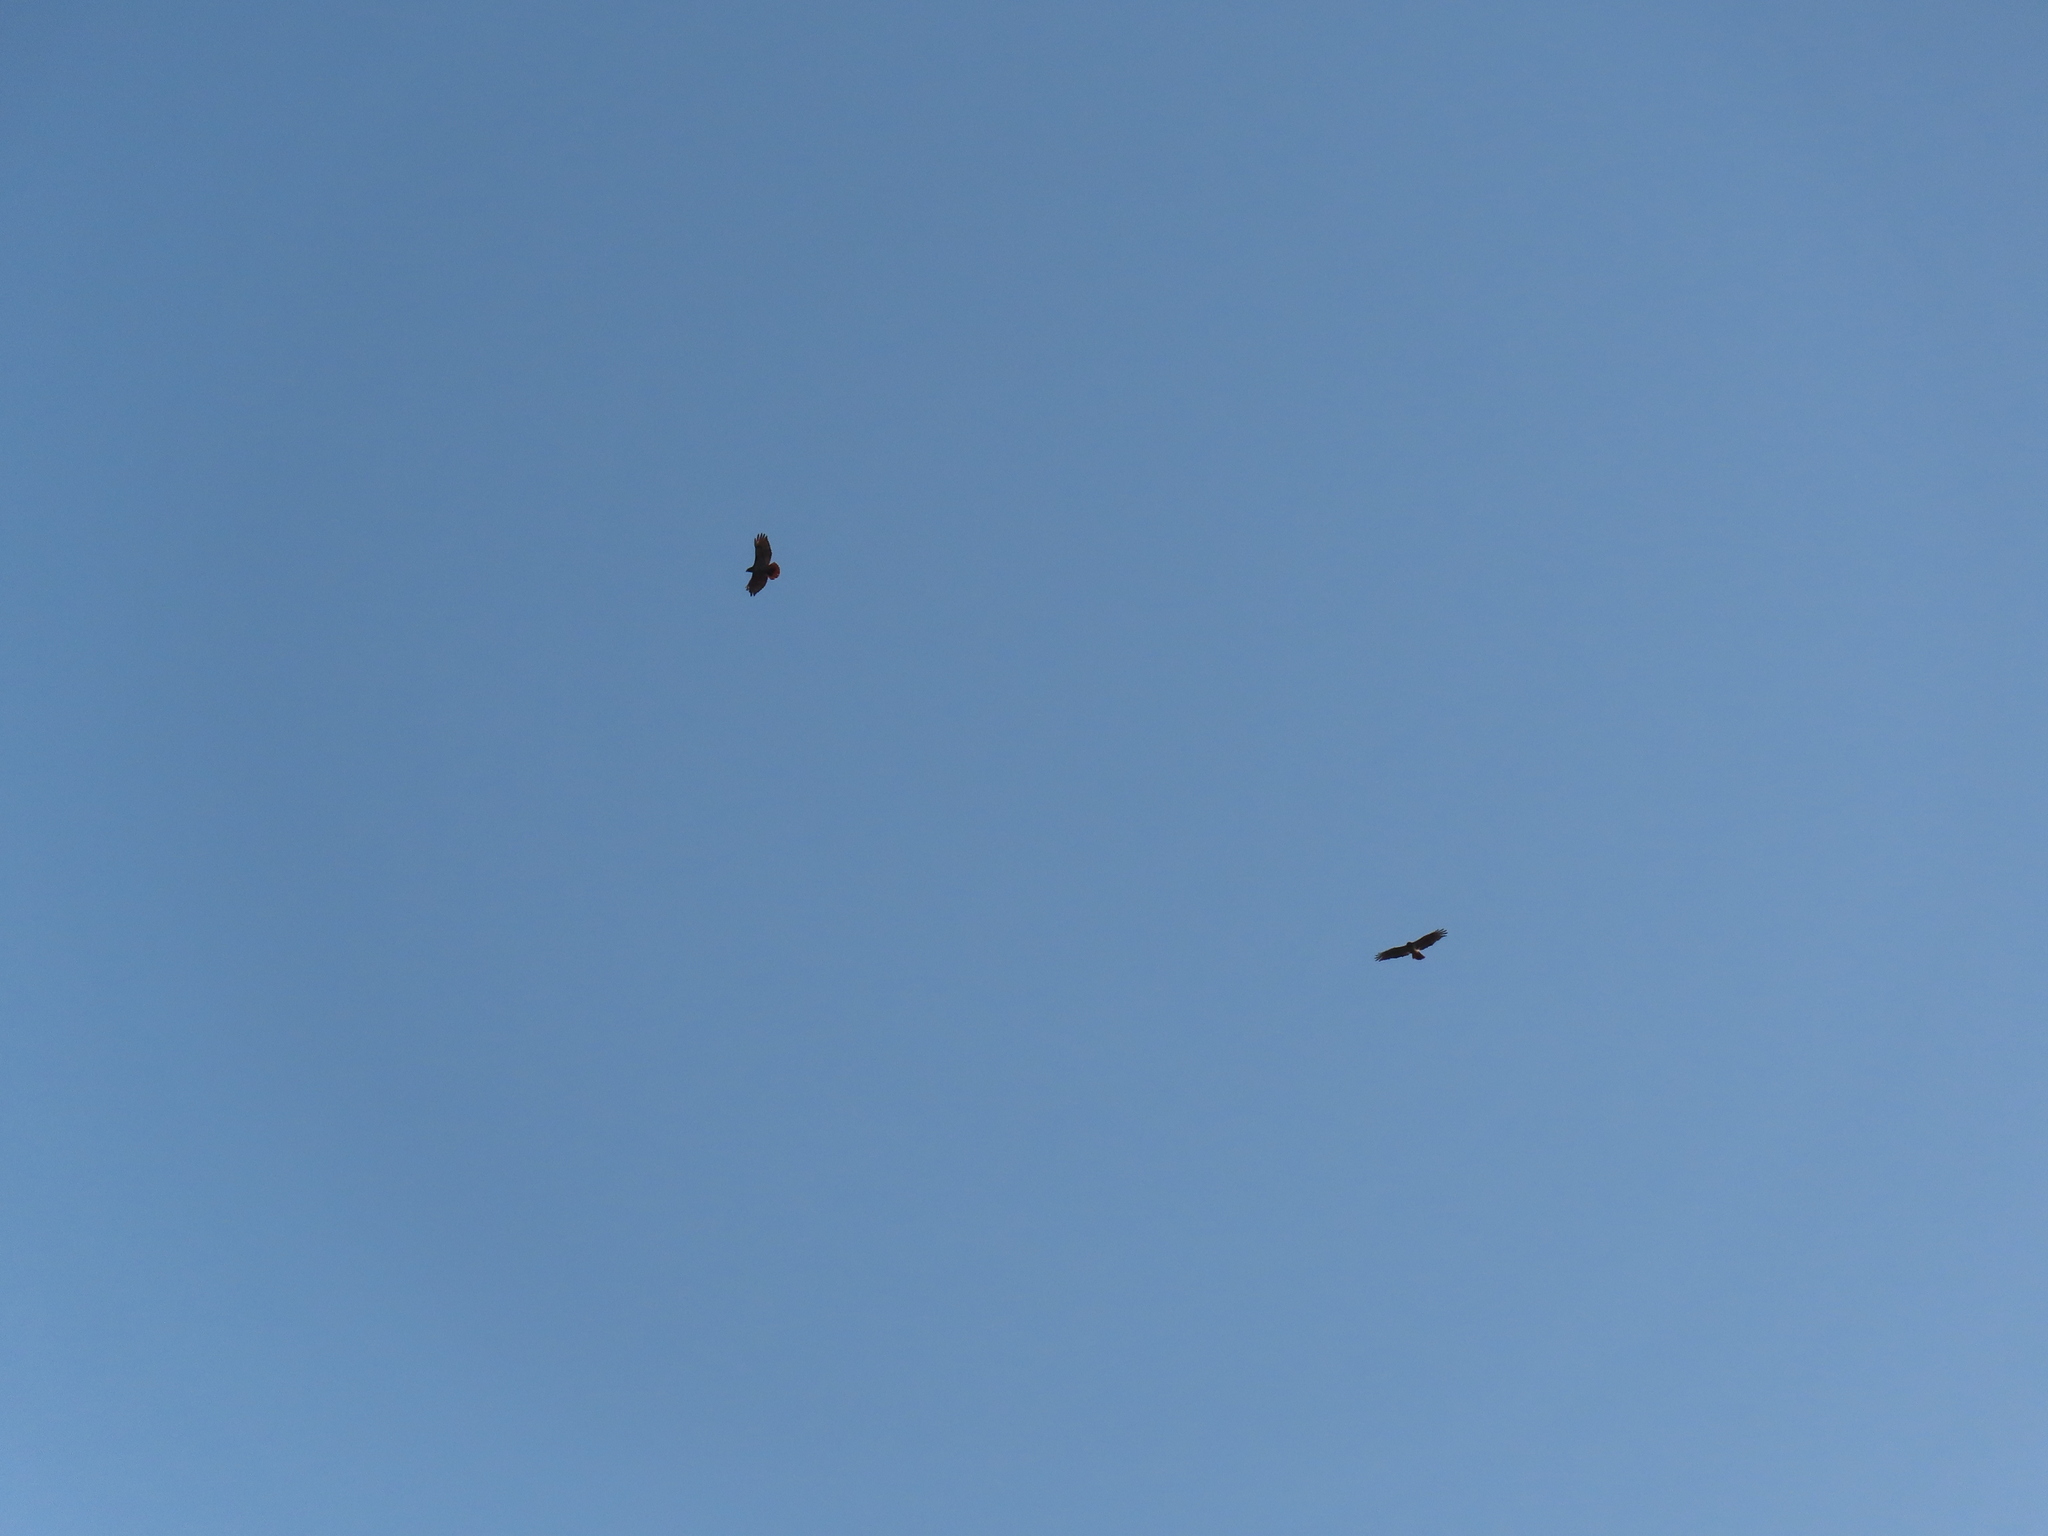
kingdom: Animalia
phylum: Chordata
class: Aves
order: Accipitriformes
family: Accipitridae
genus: Buteo
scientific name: Buteo jamaicensis
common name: Red-tailed hawk
